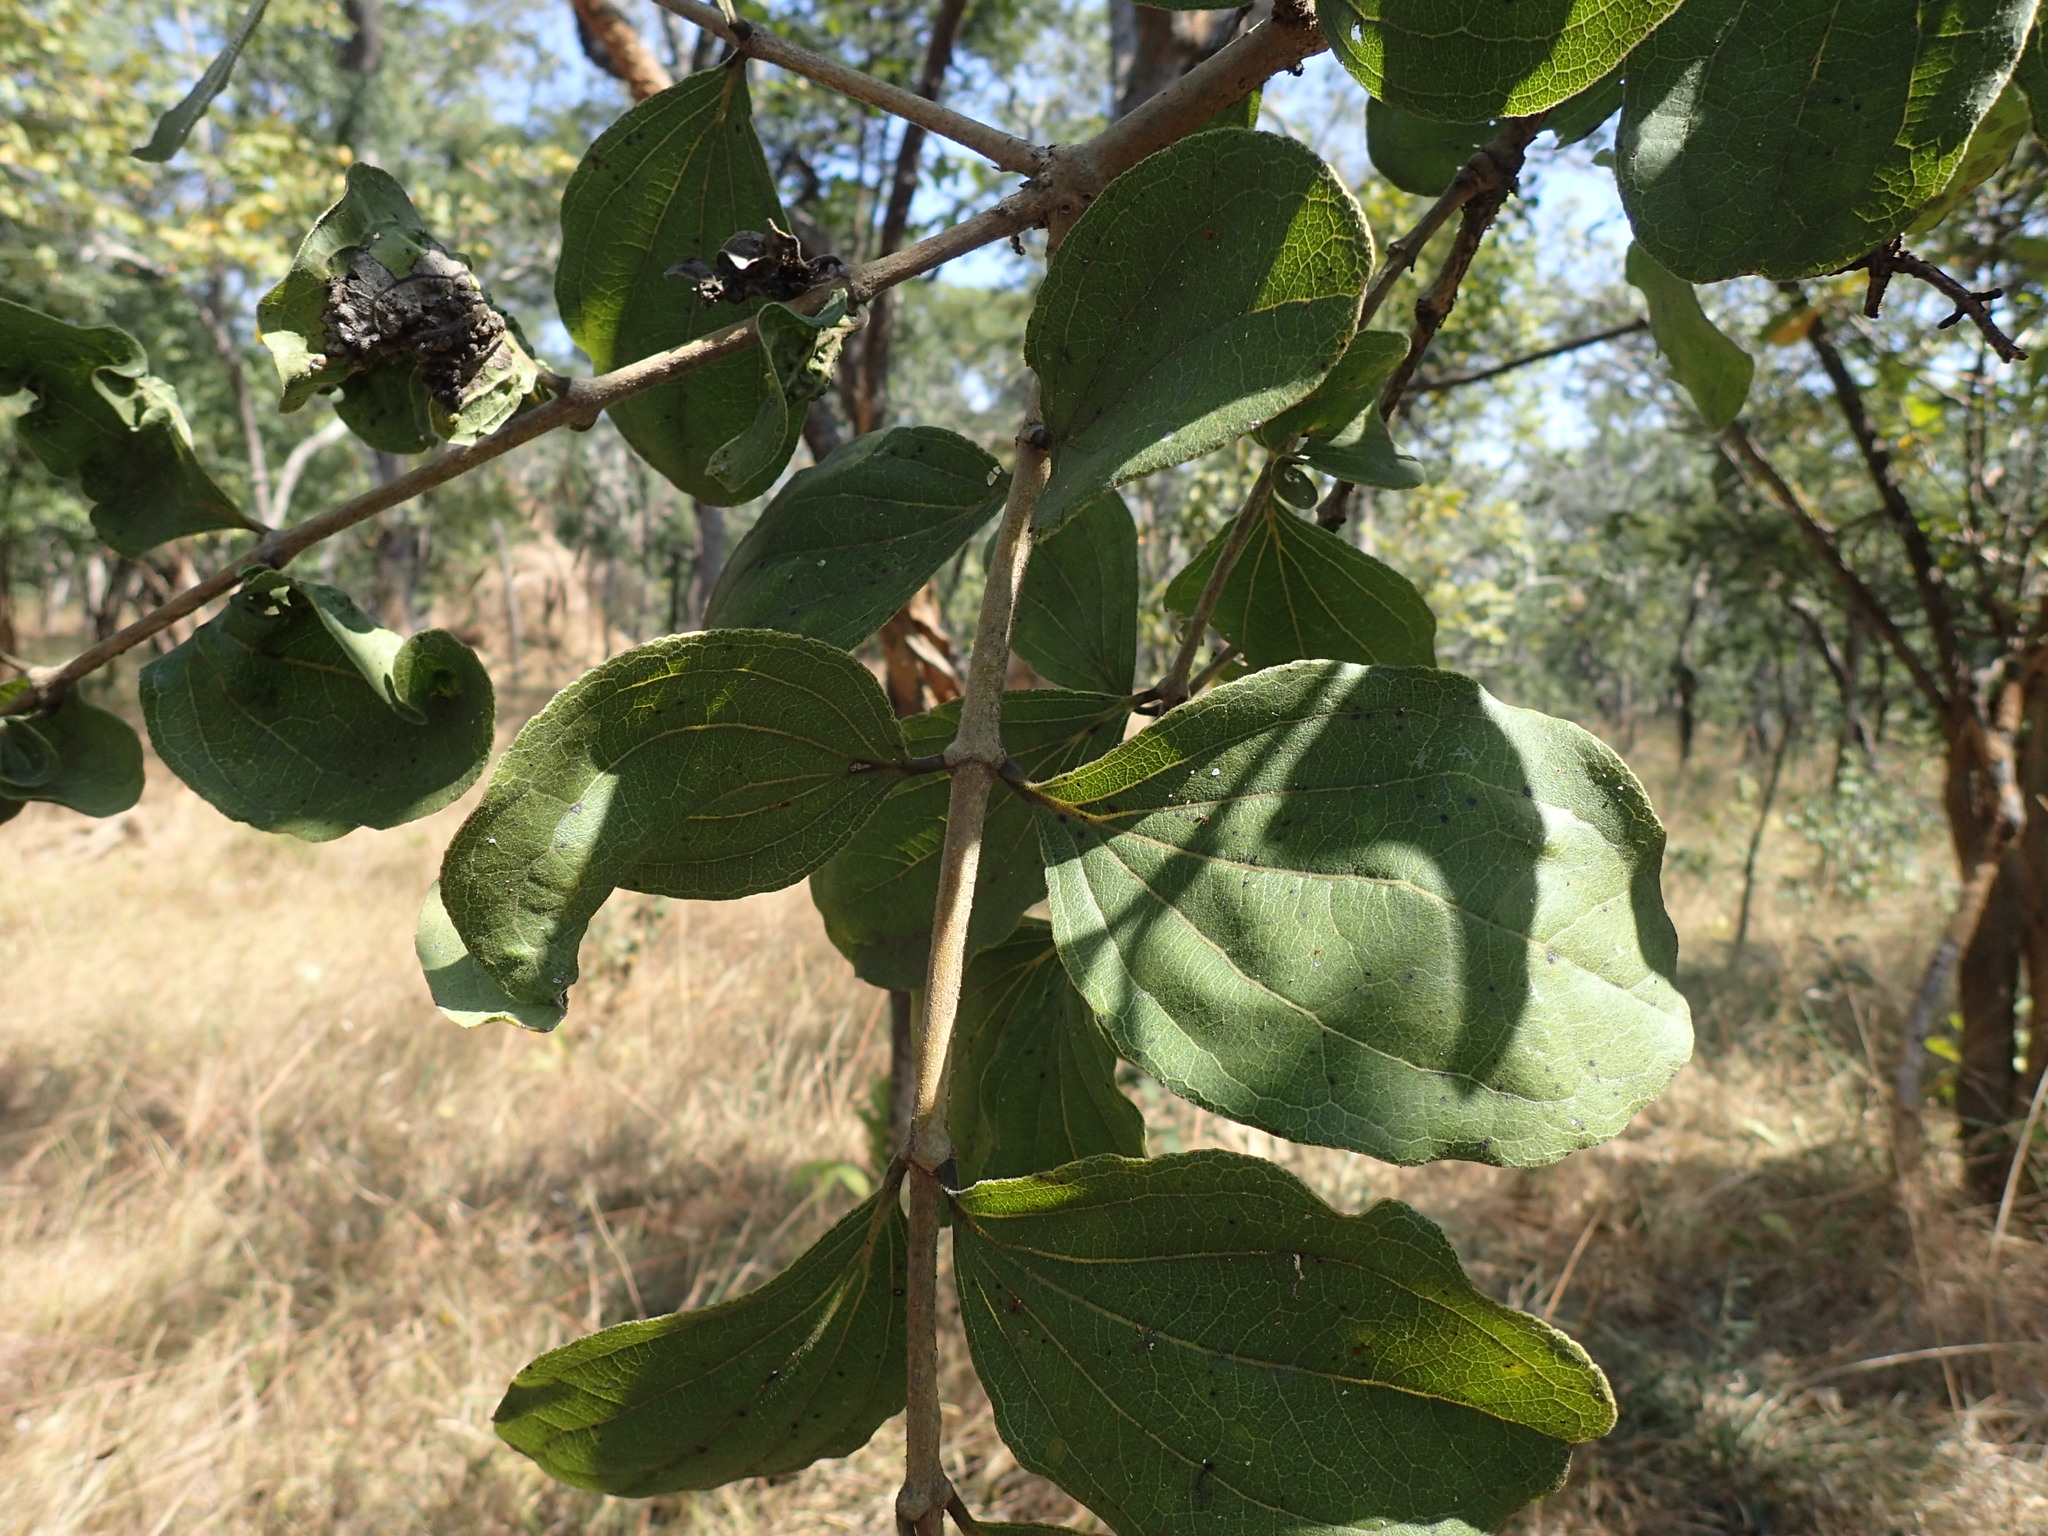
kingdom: Plantae
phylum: Tracheophyta
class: Magnoliopsida
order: Gentianales
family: Loganiaceae
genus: Strychnos
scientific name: Strychnos innocua
